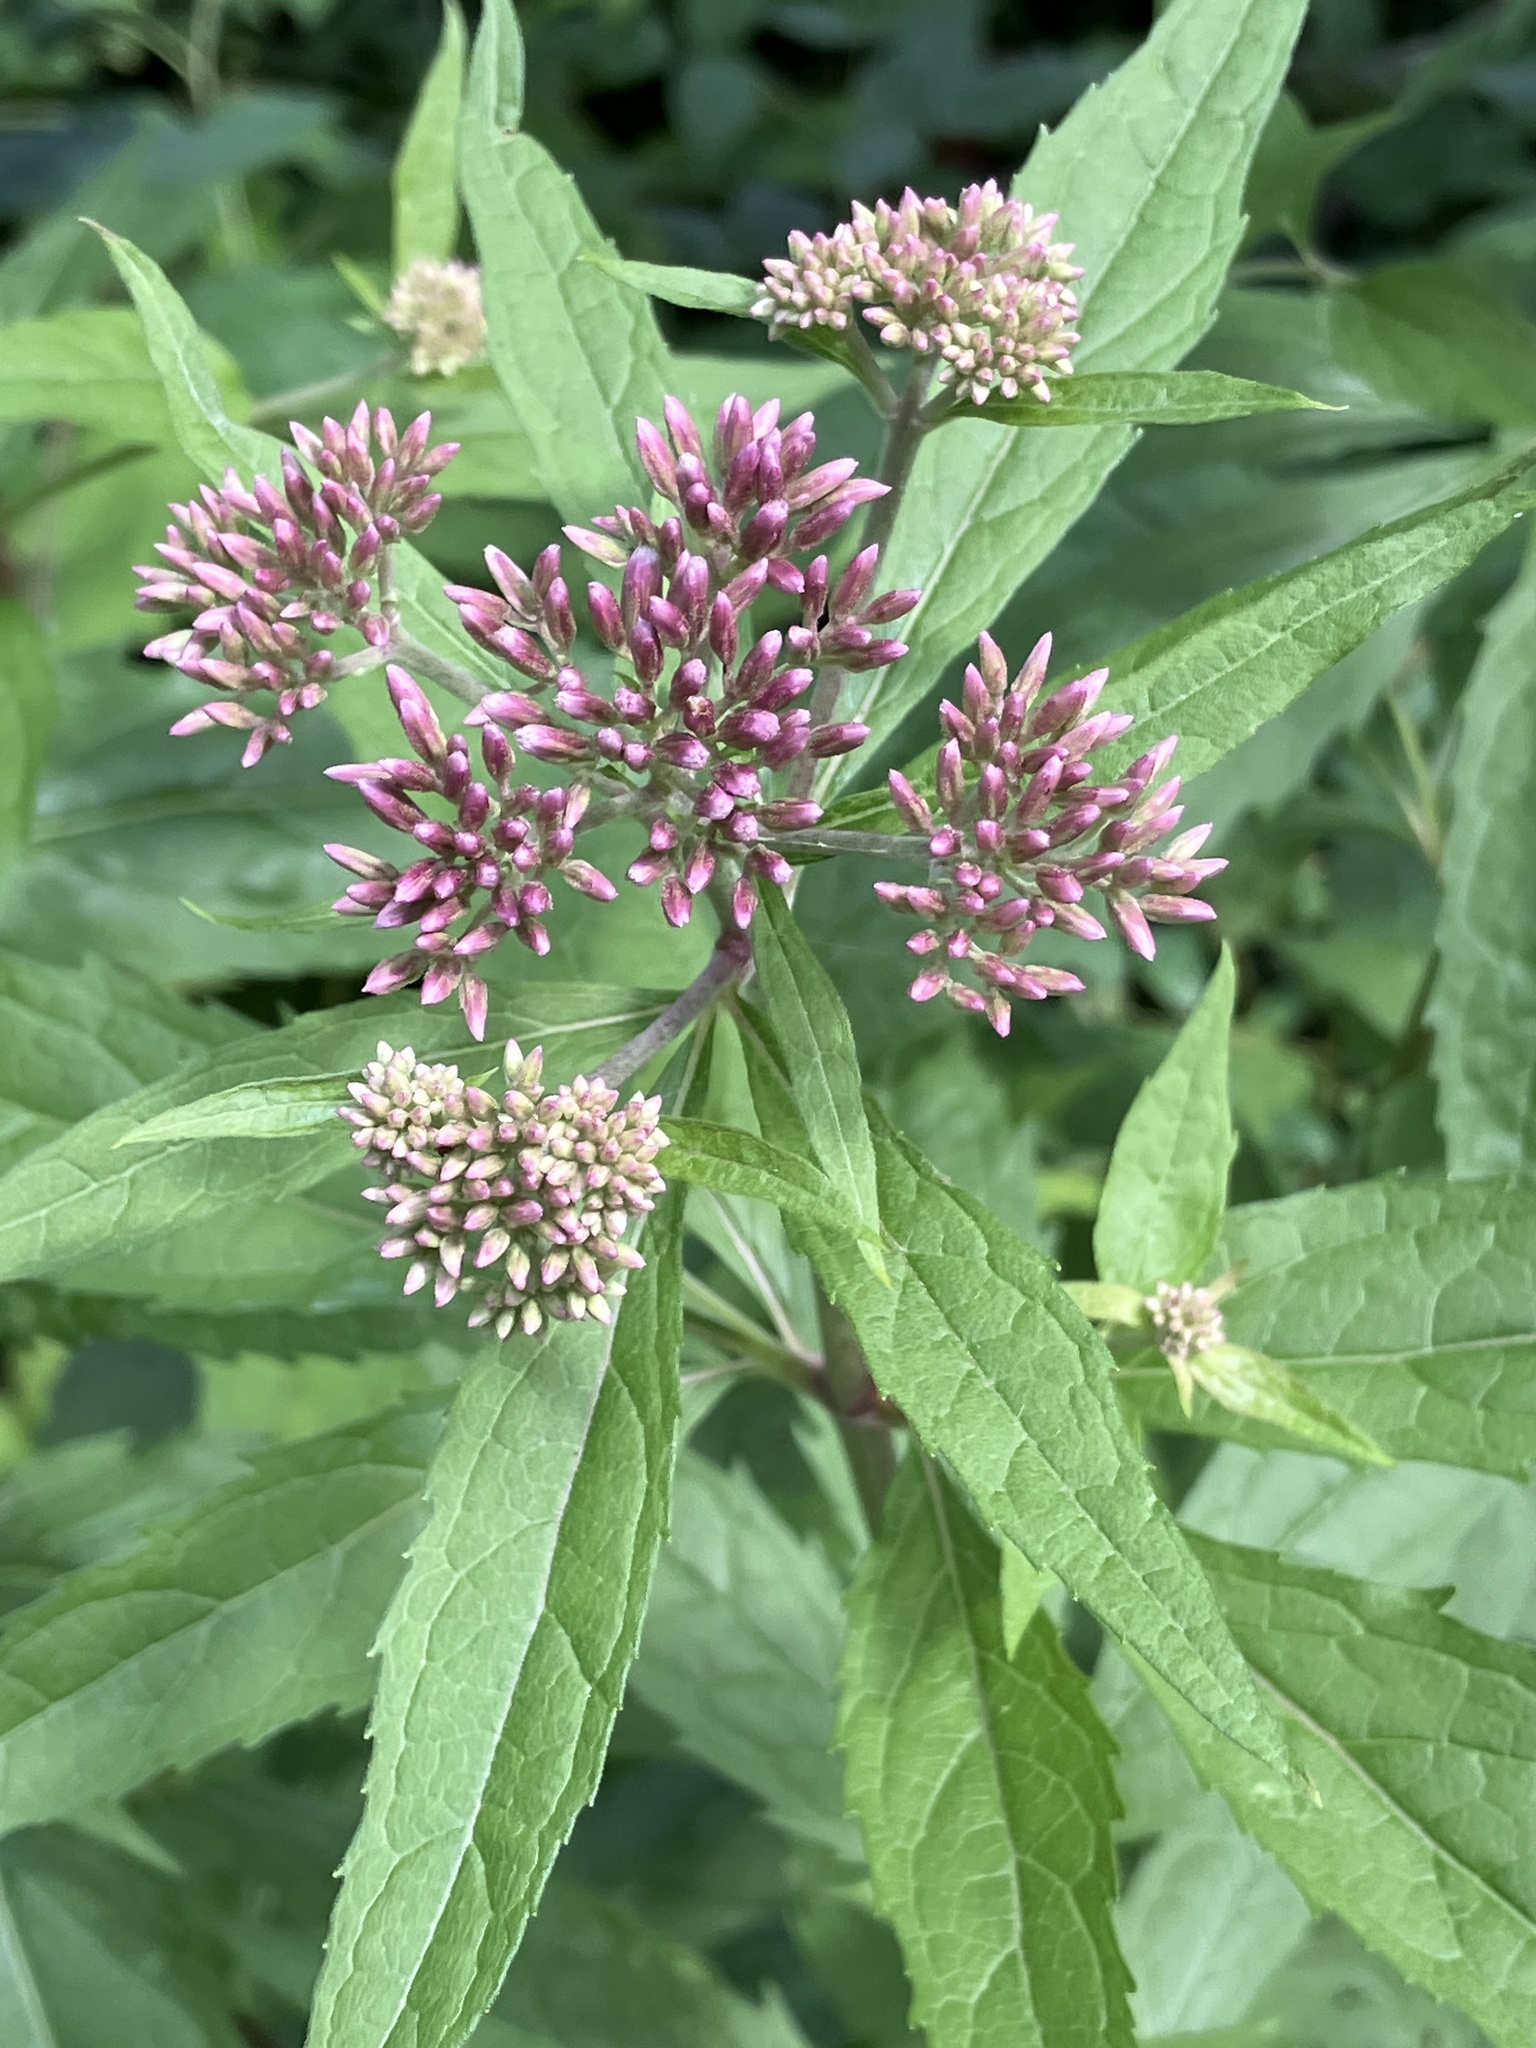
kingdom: Plantae
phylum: Tracheophyta
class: Magnoliopsida
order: Asterales
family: Asteraceae
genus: Eupatorium
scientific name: Eupatorium cannabinum
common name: Hemp-agrimony
